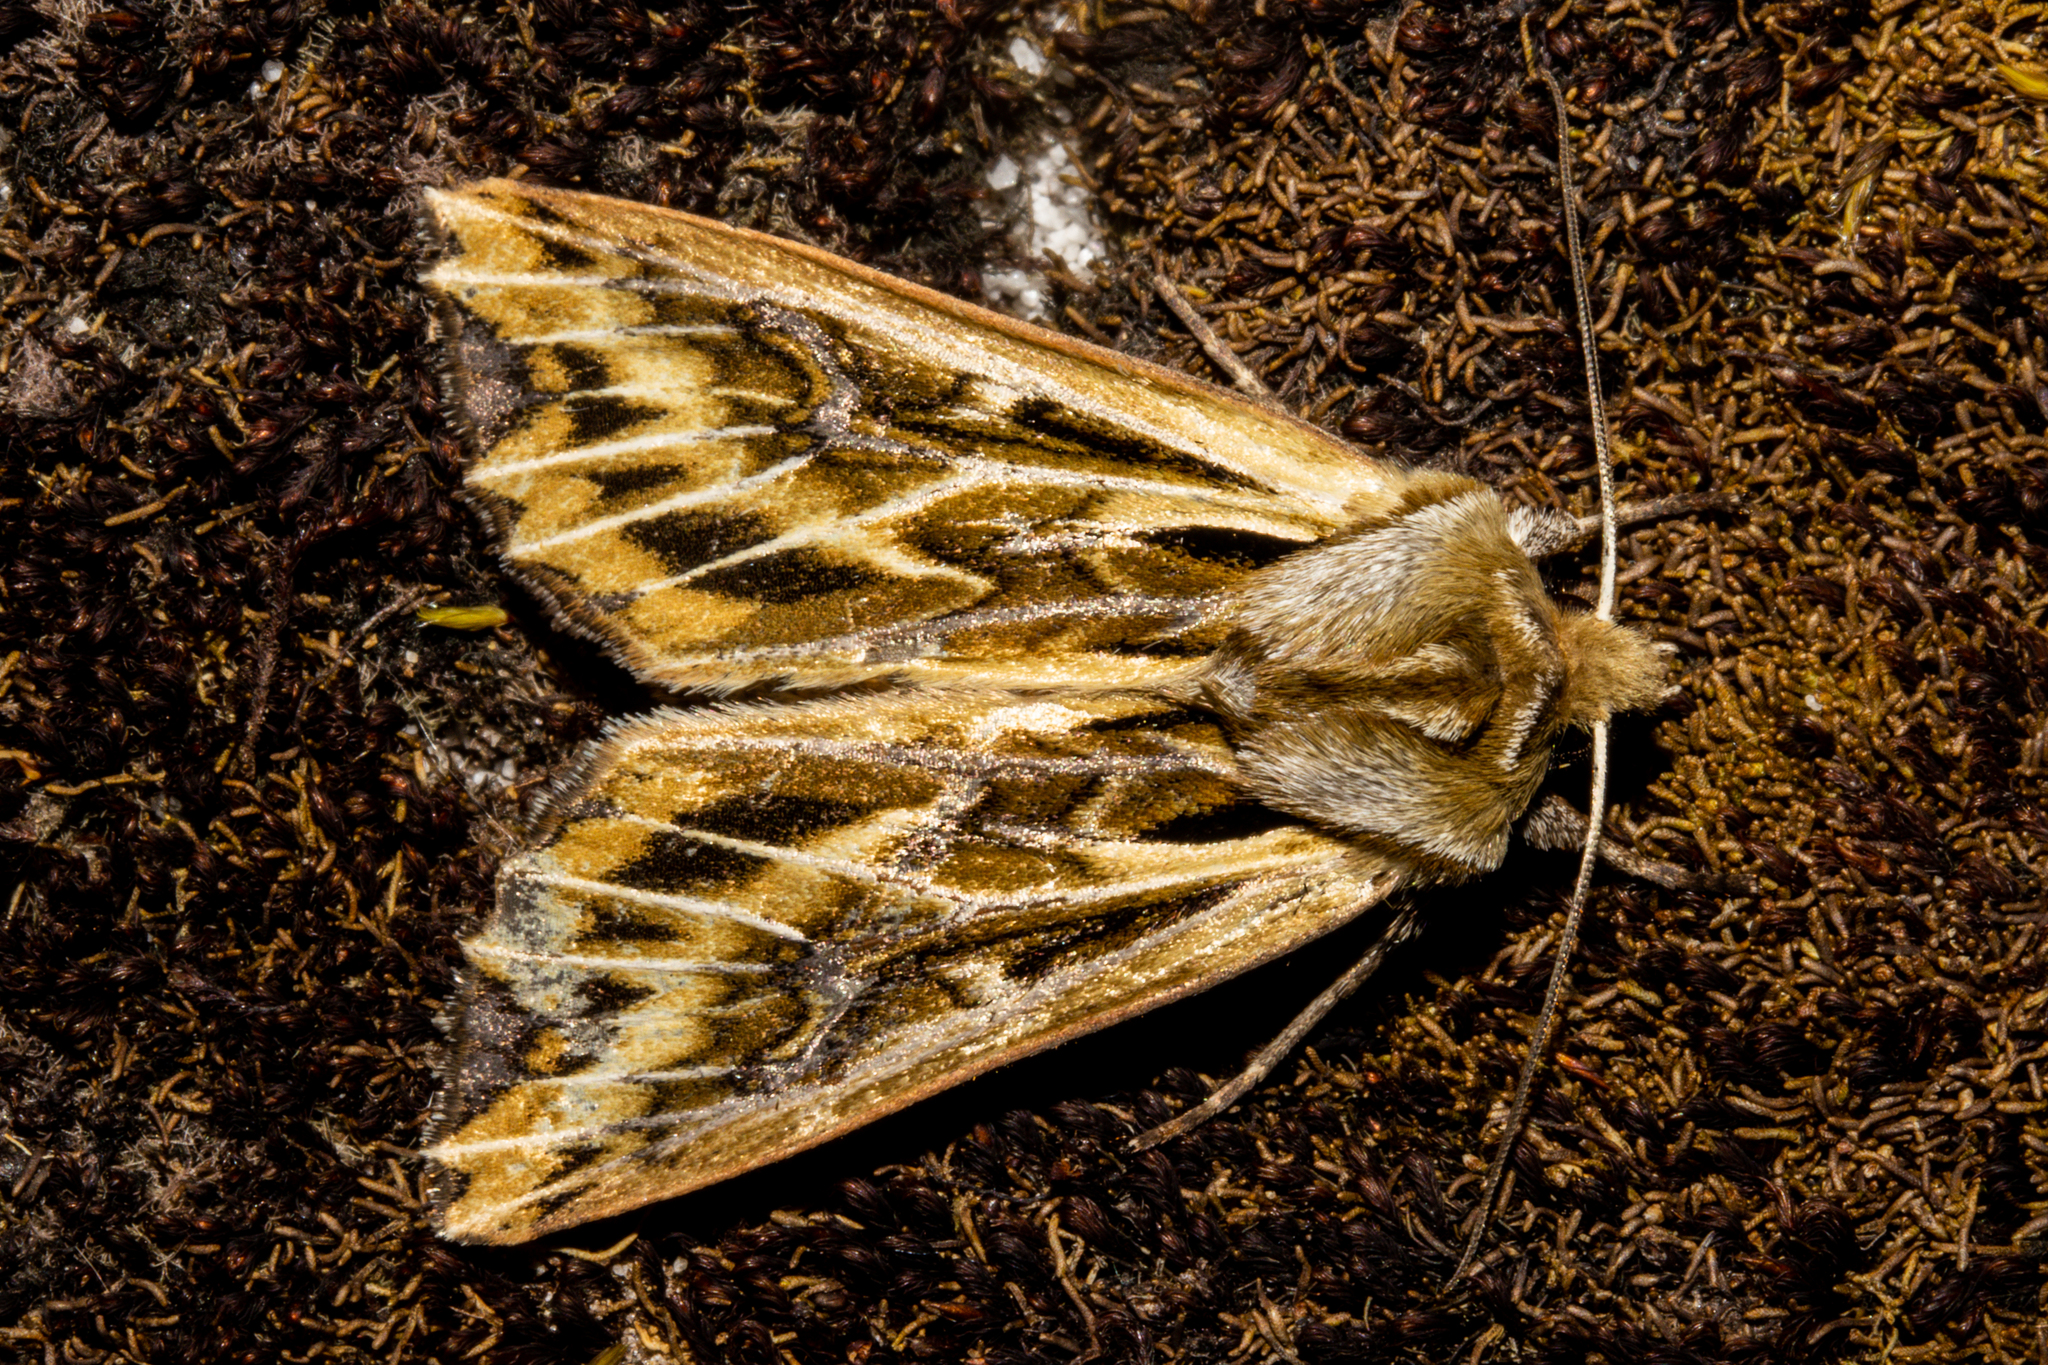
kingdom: Animalia
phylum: Arthropoda
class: Insecta
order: Lepidoptera
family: Noctuidae
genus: Ichneutica
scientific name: Ichneutica
